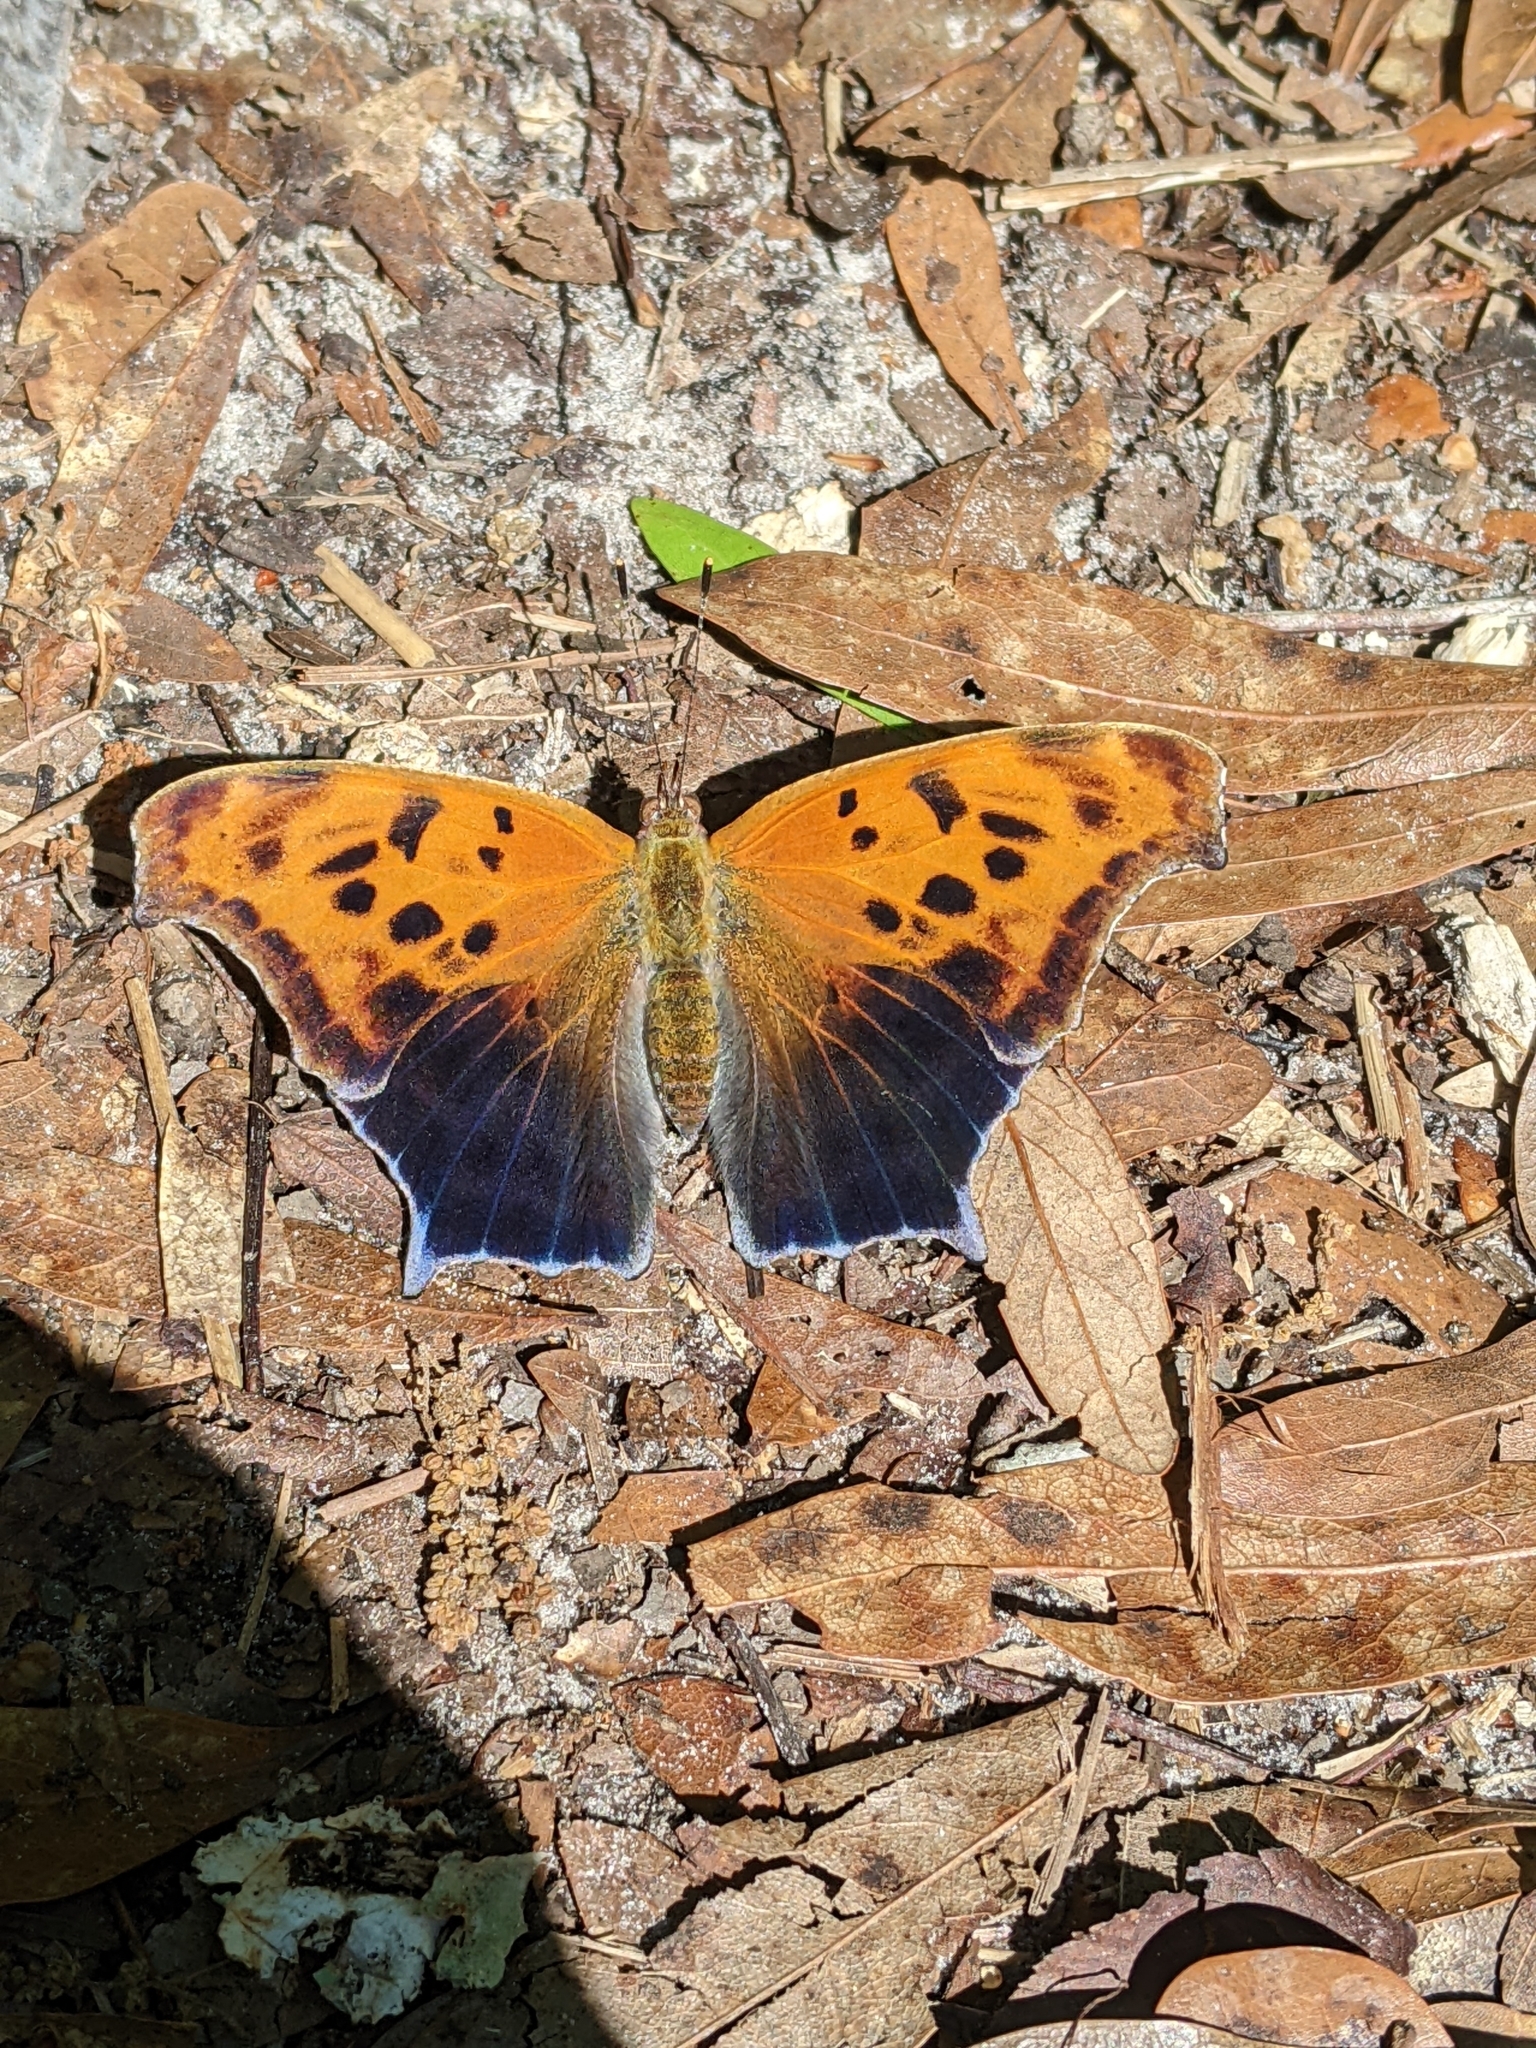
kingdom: Animalia
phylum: Arthropoda
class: Insecta
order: Lepidoptera
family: Nymphalidae
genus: Polygonia
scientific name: Polygonia interrogationis
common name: Question mark
